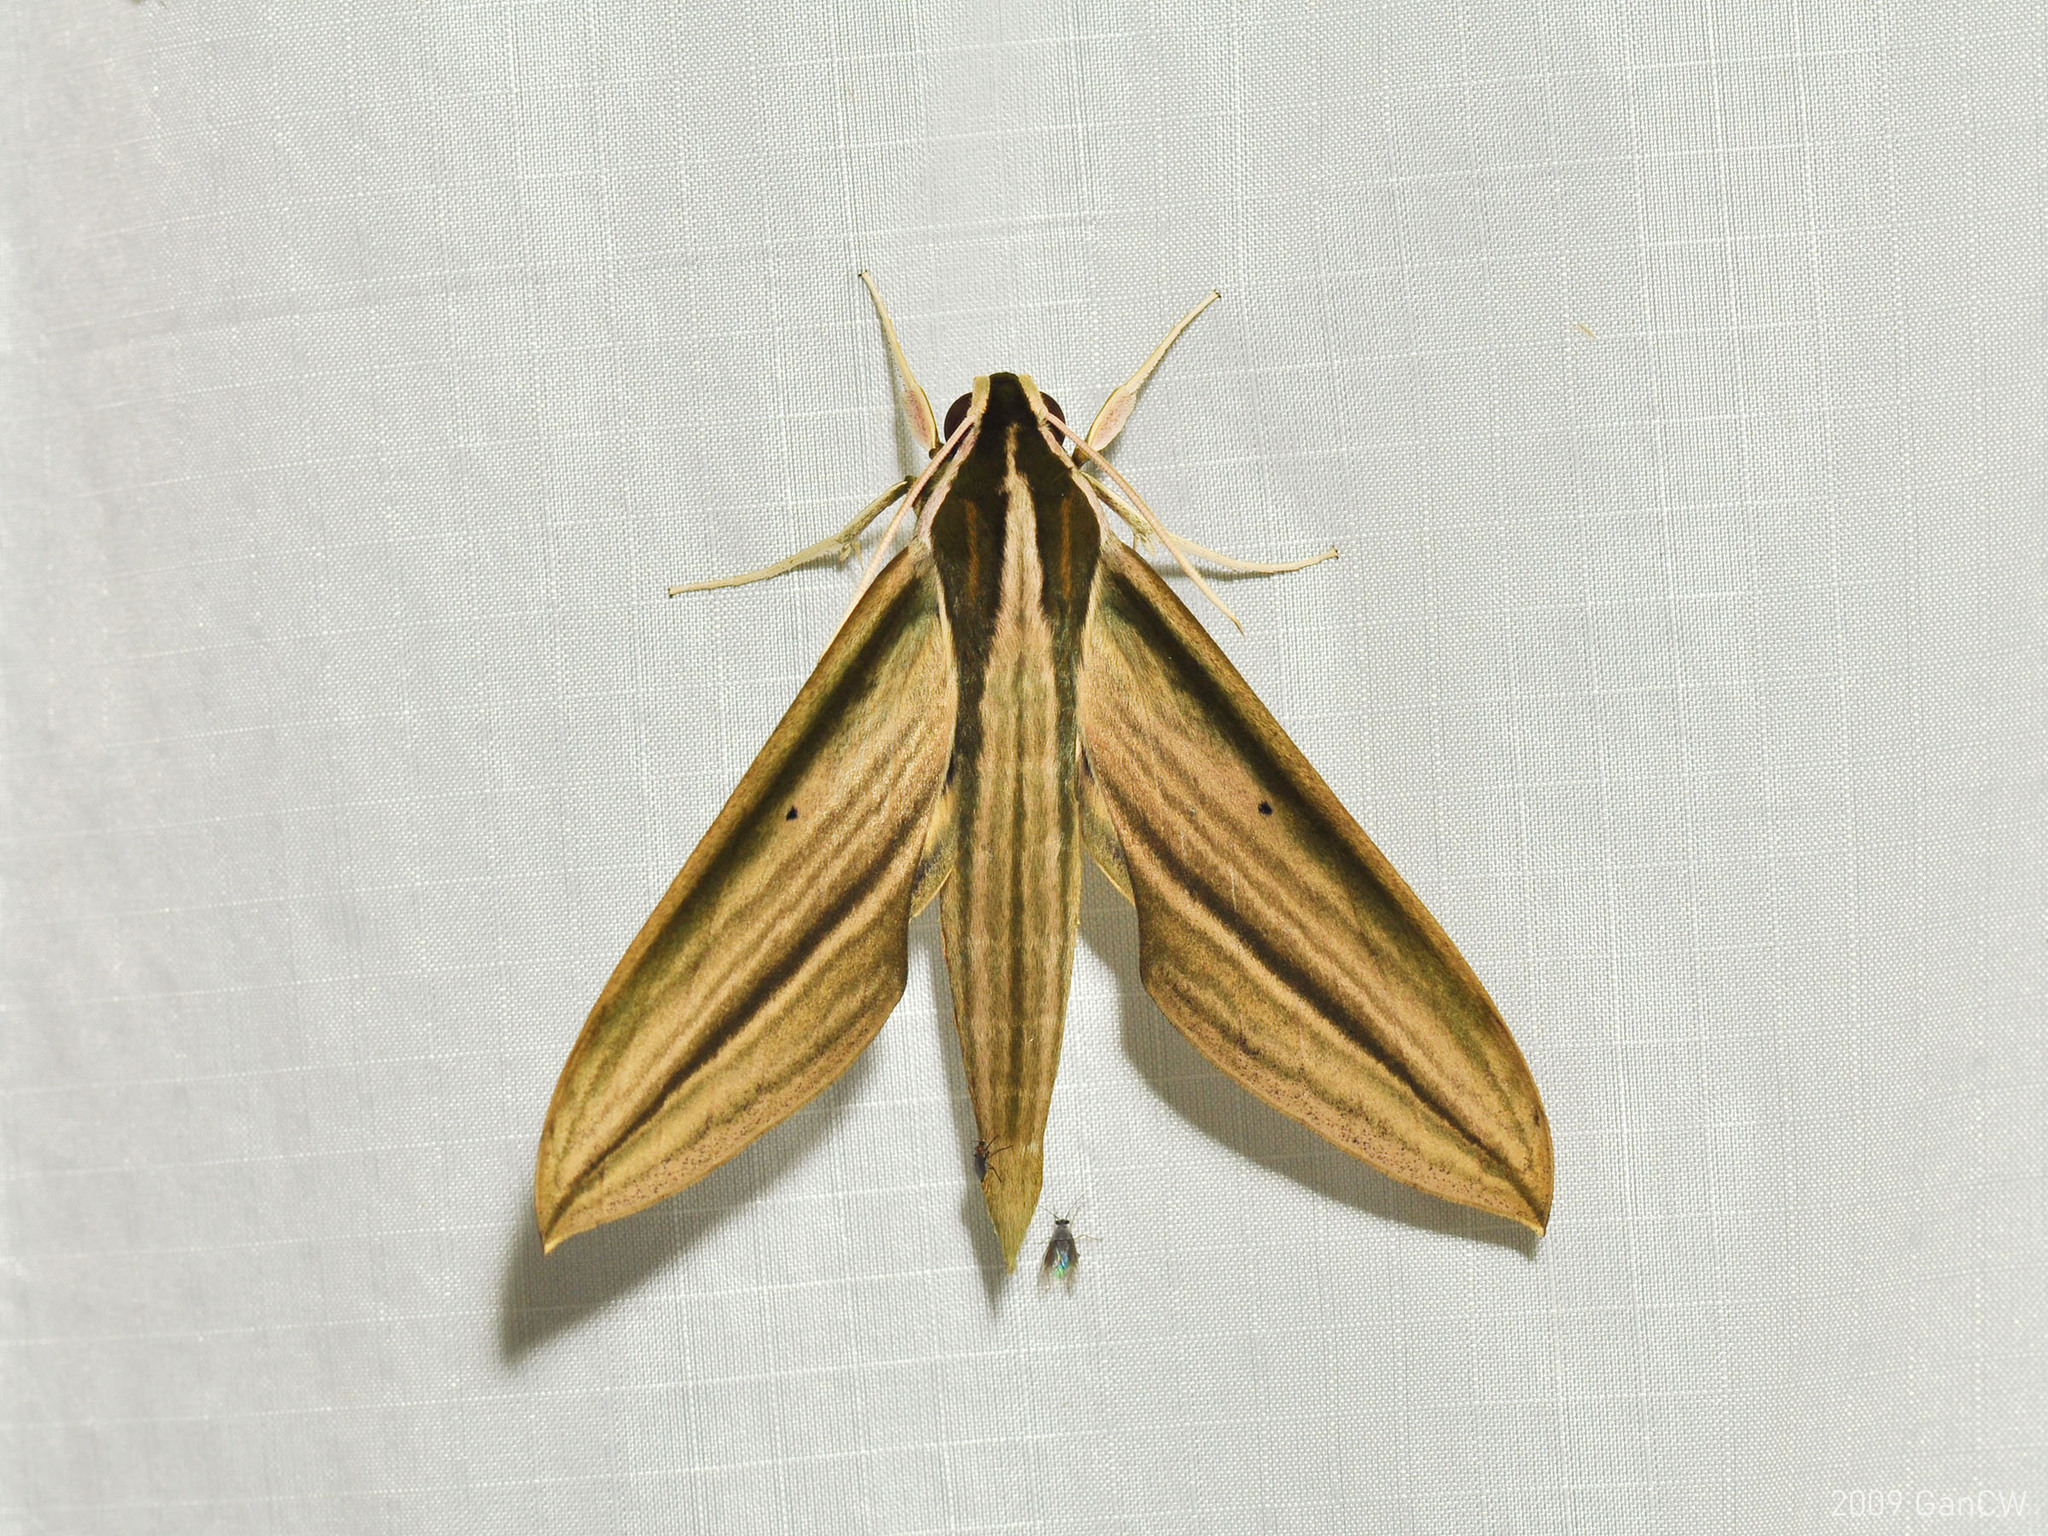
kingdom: Animalia
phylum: Arthropoda
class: Insecta
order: Lepidoptera
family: Sphingidae
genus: Cechetra
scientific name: Cechetra lineosa
